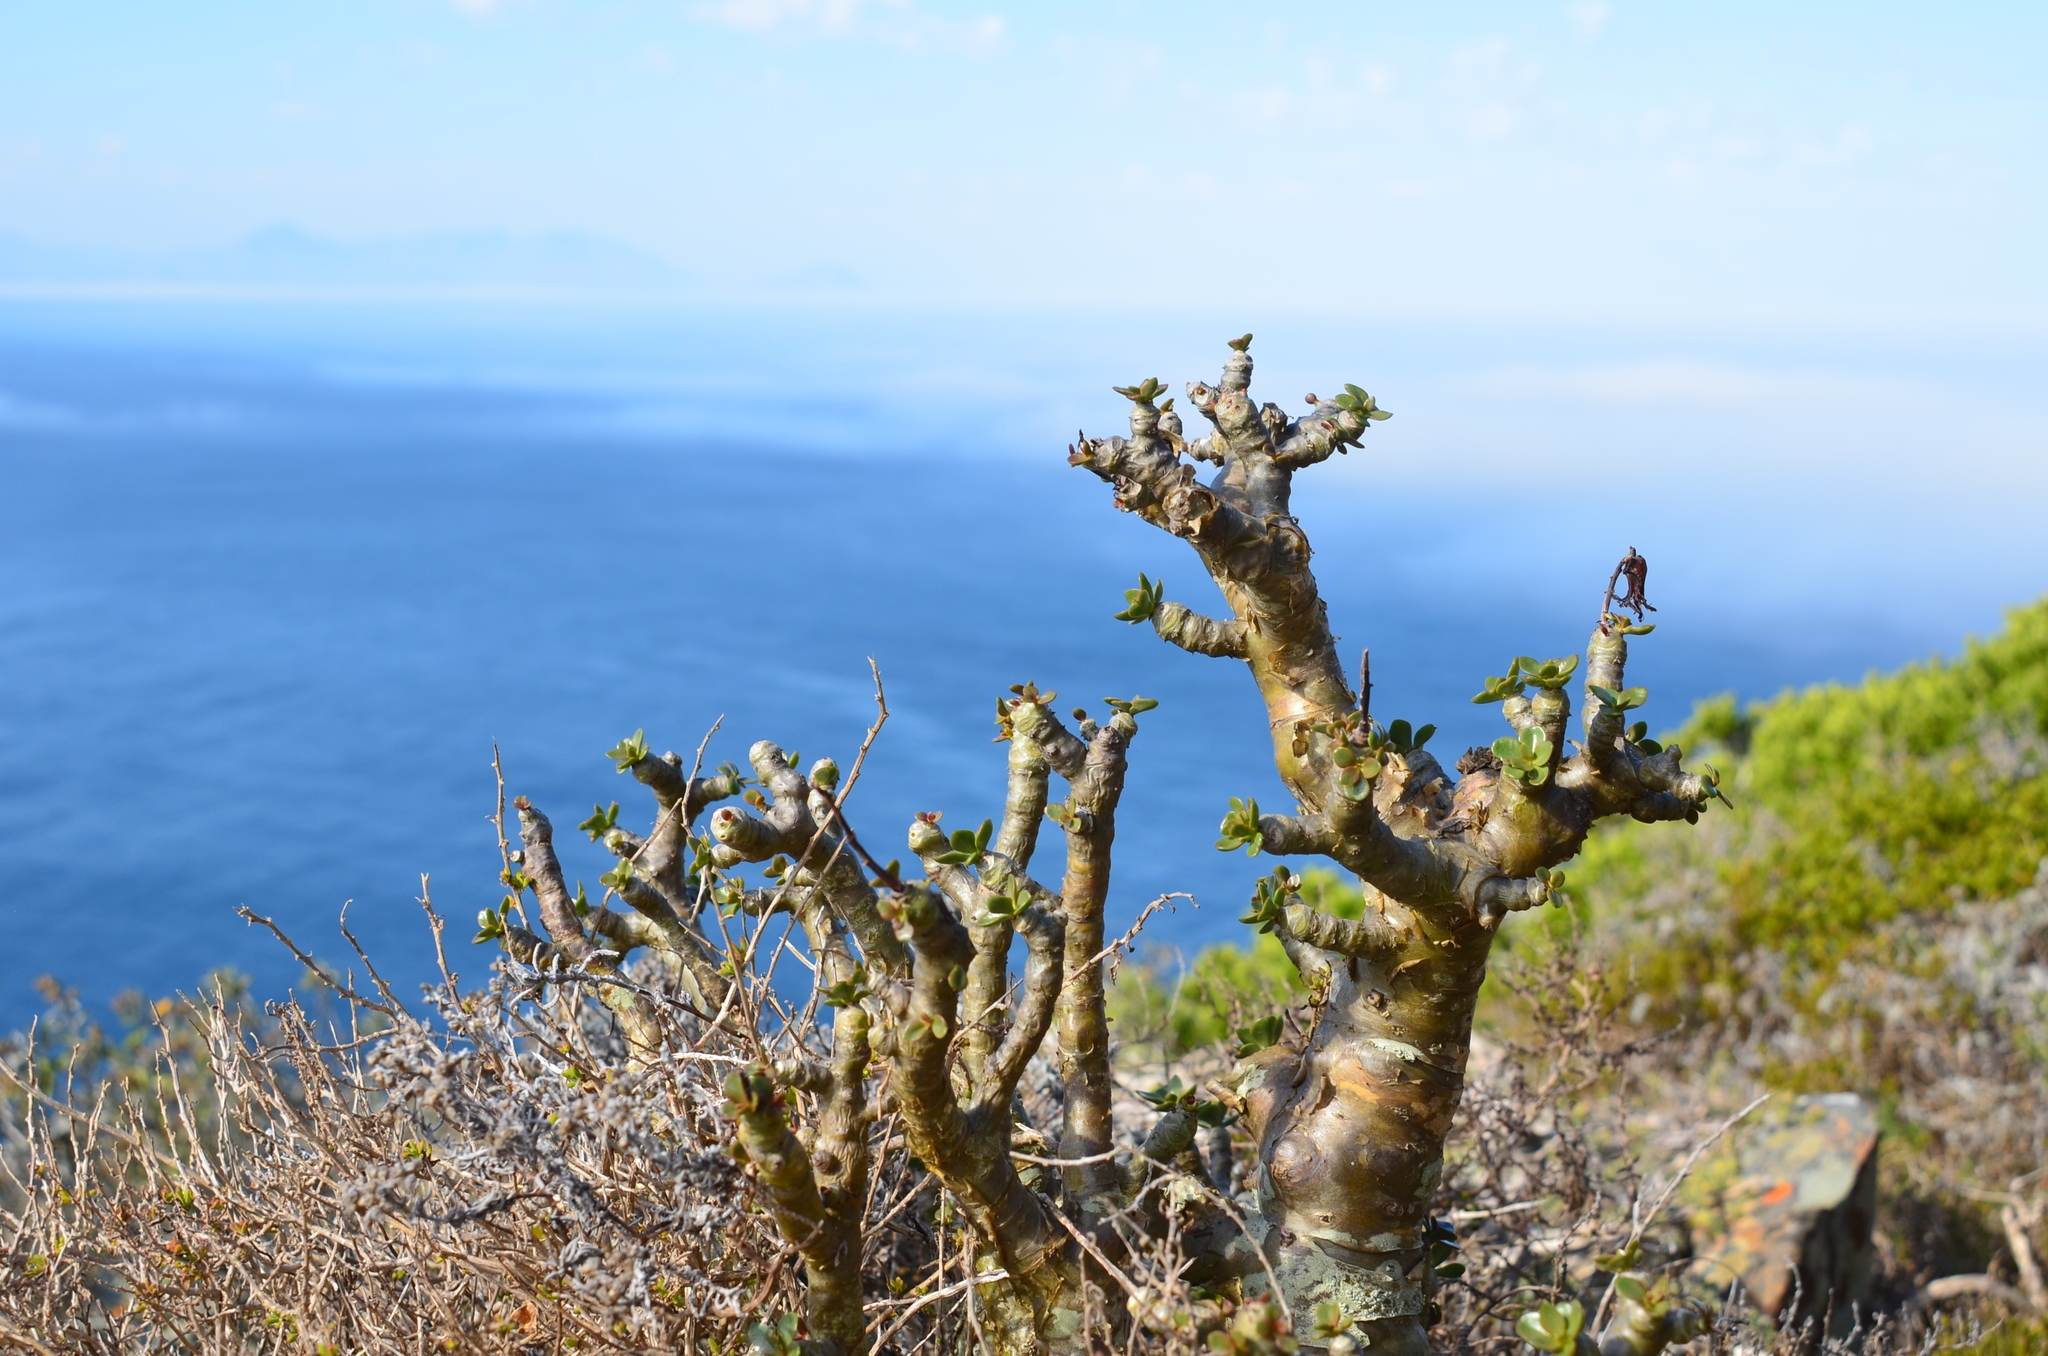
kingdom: Plantae
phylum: Tracheophyta
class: Magnoliopsida
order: Saxifragales
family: Crassulaceae
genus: Tylecodon
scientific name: Tylecodon paniculatus
